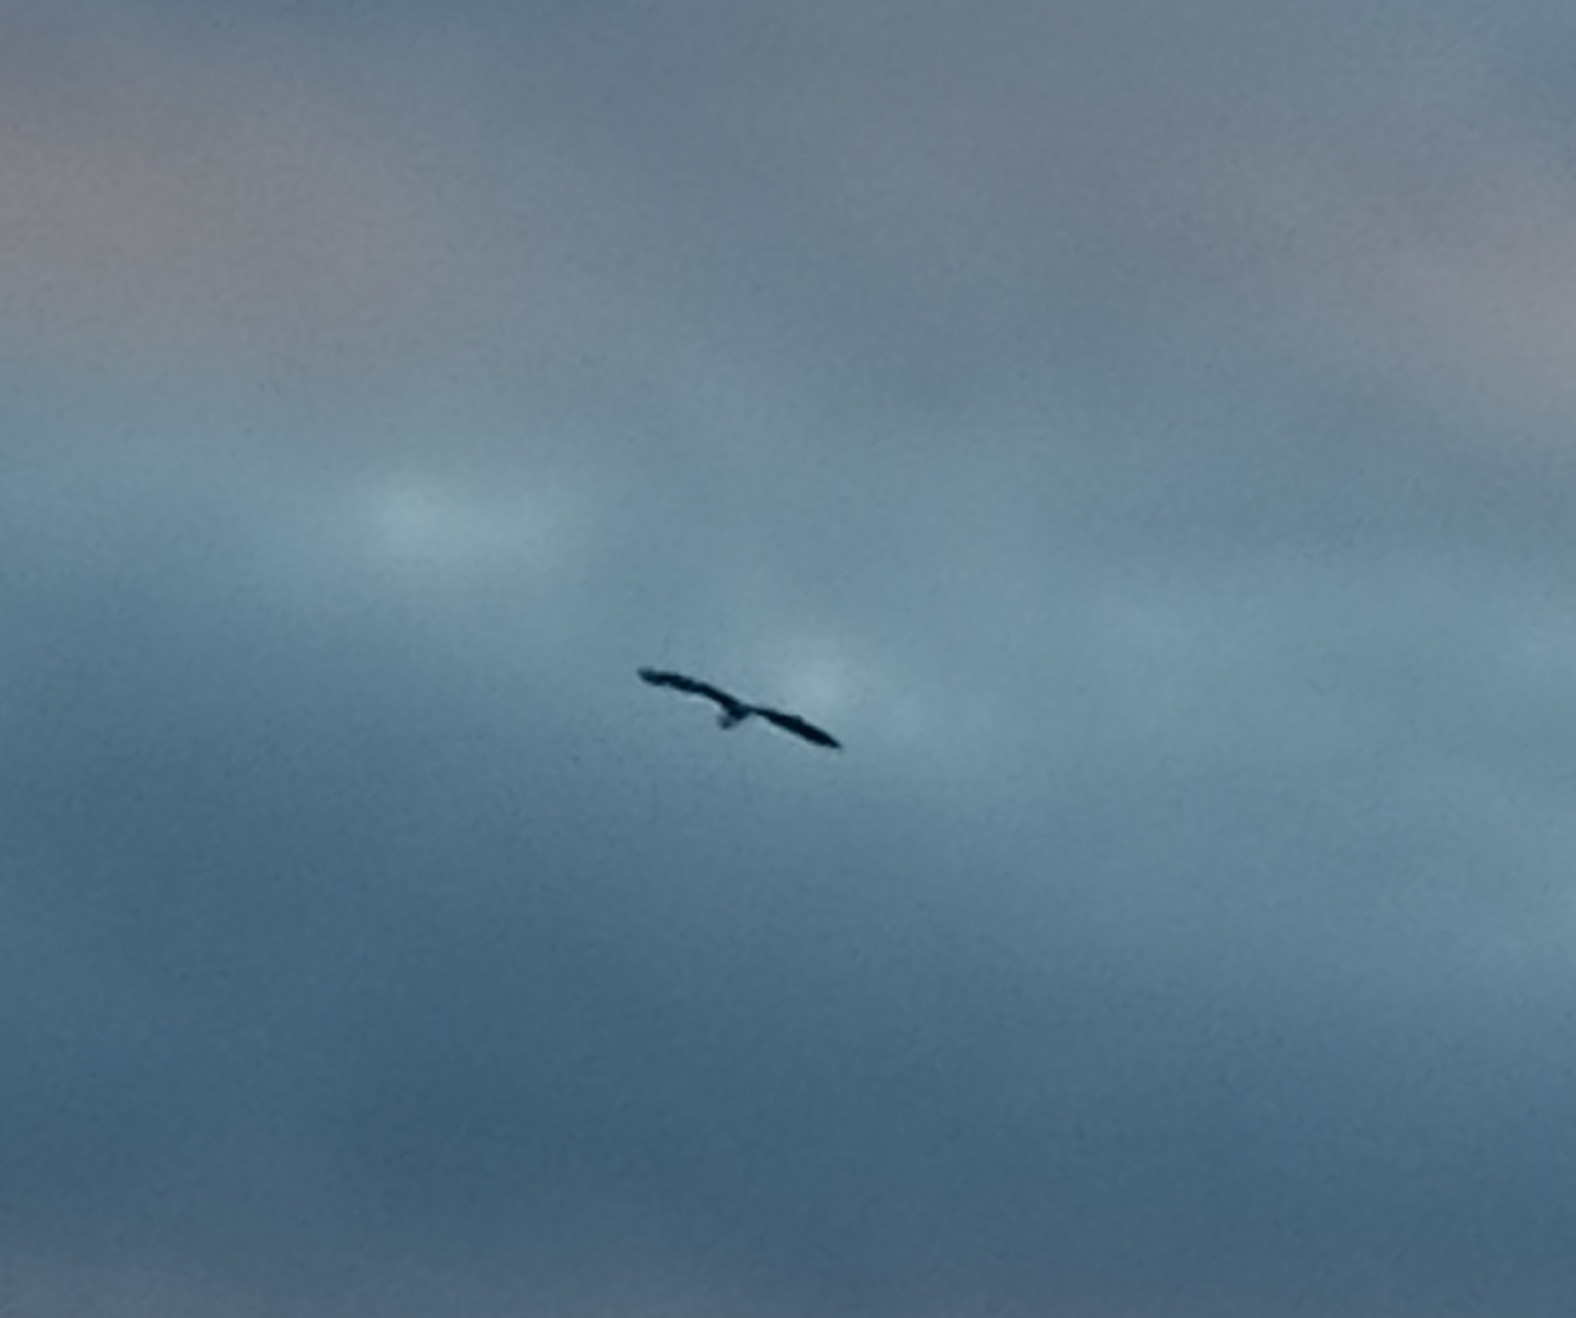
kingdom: Animalia
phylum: Chordata
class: Aves
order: Pelecaniformes
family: Ardeidae
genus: Ardea
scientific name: Ardea cinerea
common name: Grey heron
